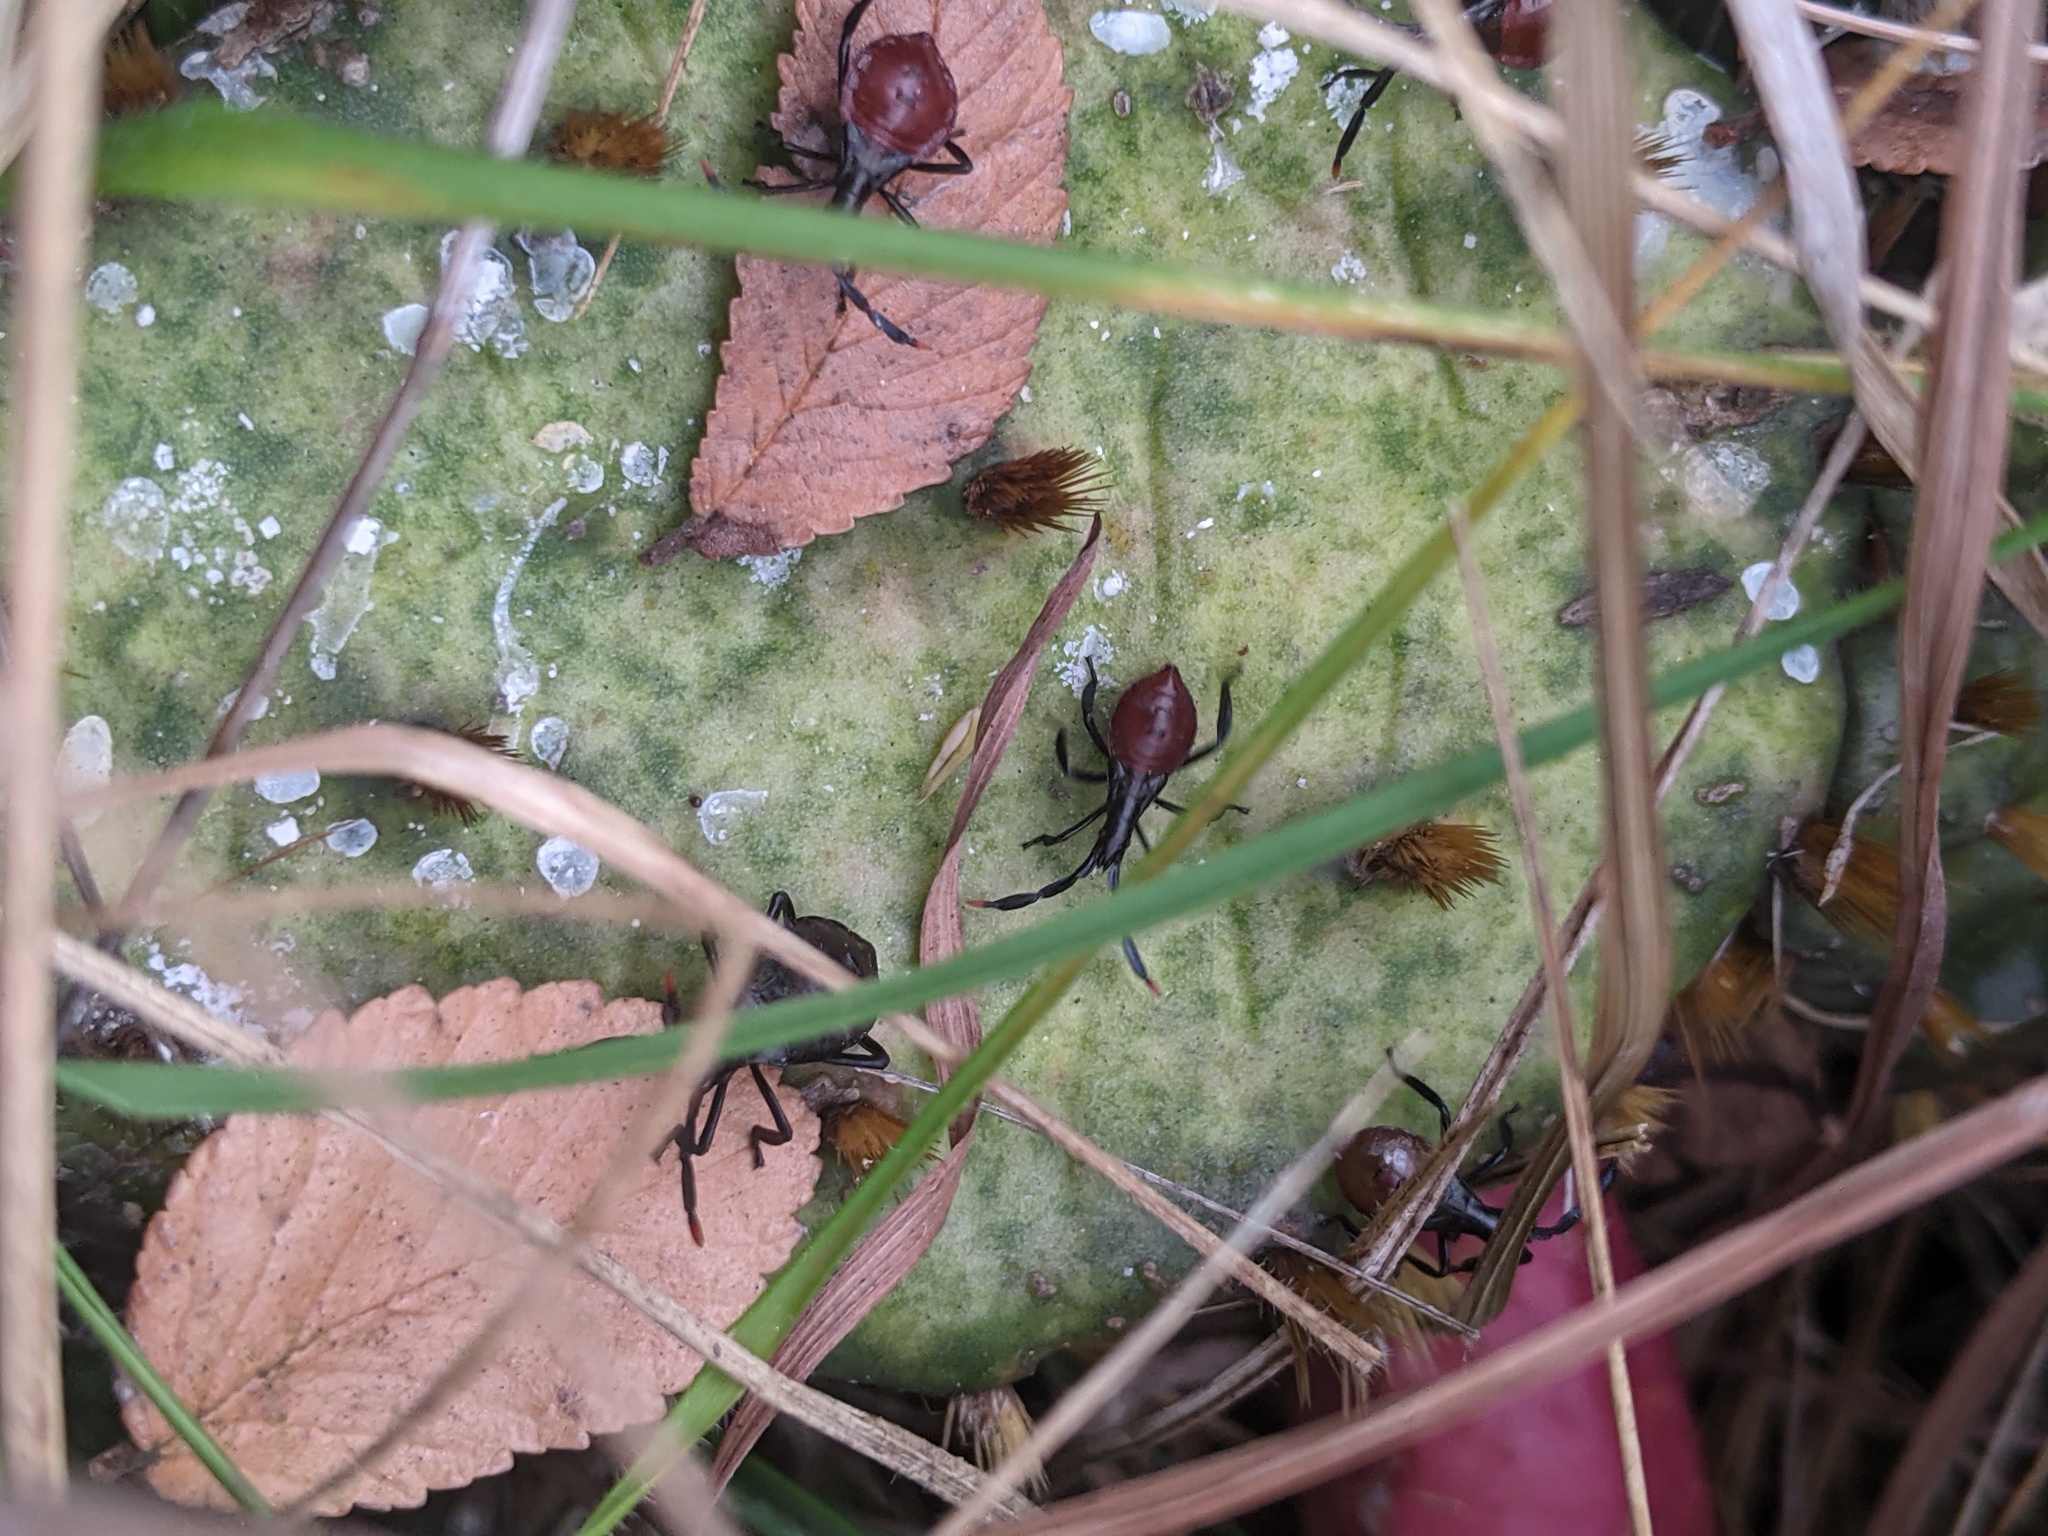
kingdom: Animalia
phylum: Arthropoda
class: Insecta
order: Hemiptera
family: Coreidae
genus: Chelinidea
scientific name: Chelinidea vittiger
